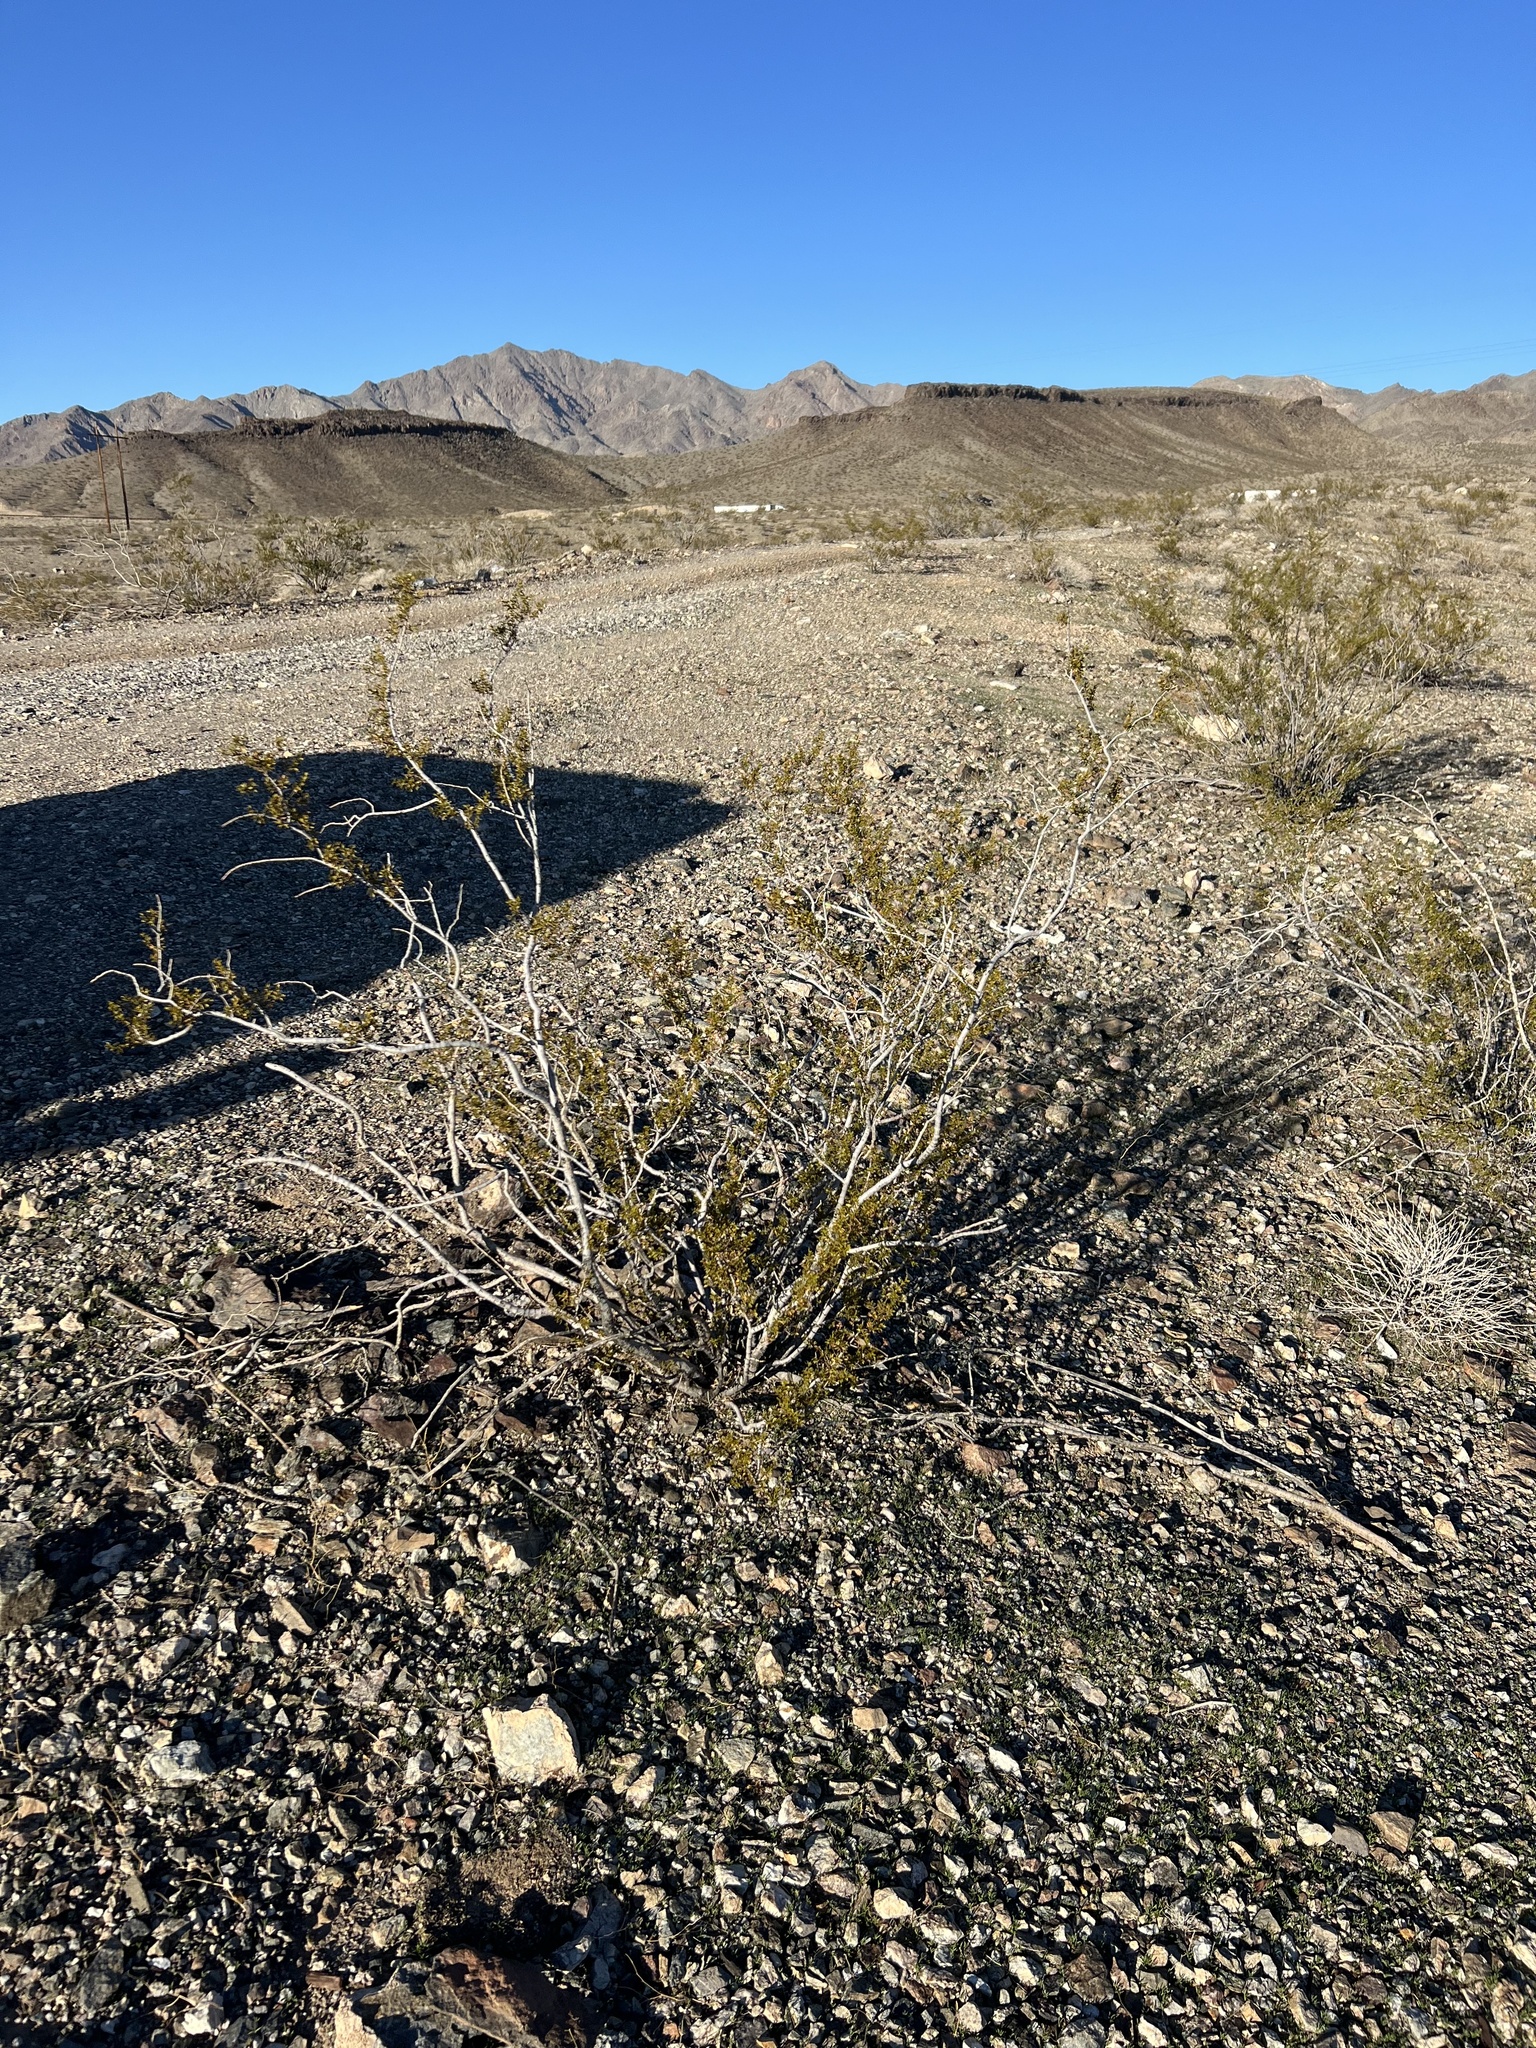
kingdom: Plantae
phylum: Tracheophyta
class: Magnoliopsida
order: Zygophyllales
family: Zygophyllaceae
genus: Larrea
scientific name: Larrea tridentata
